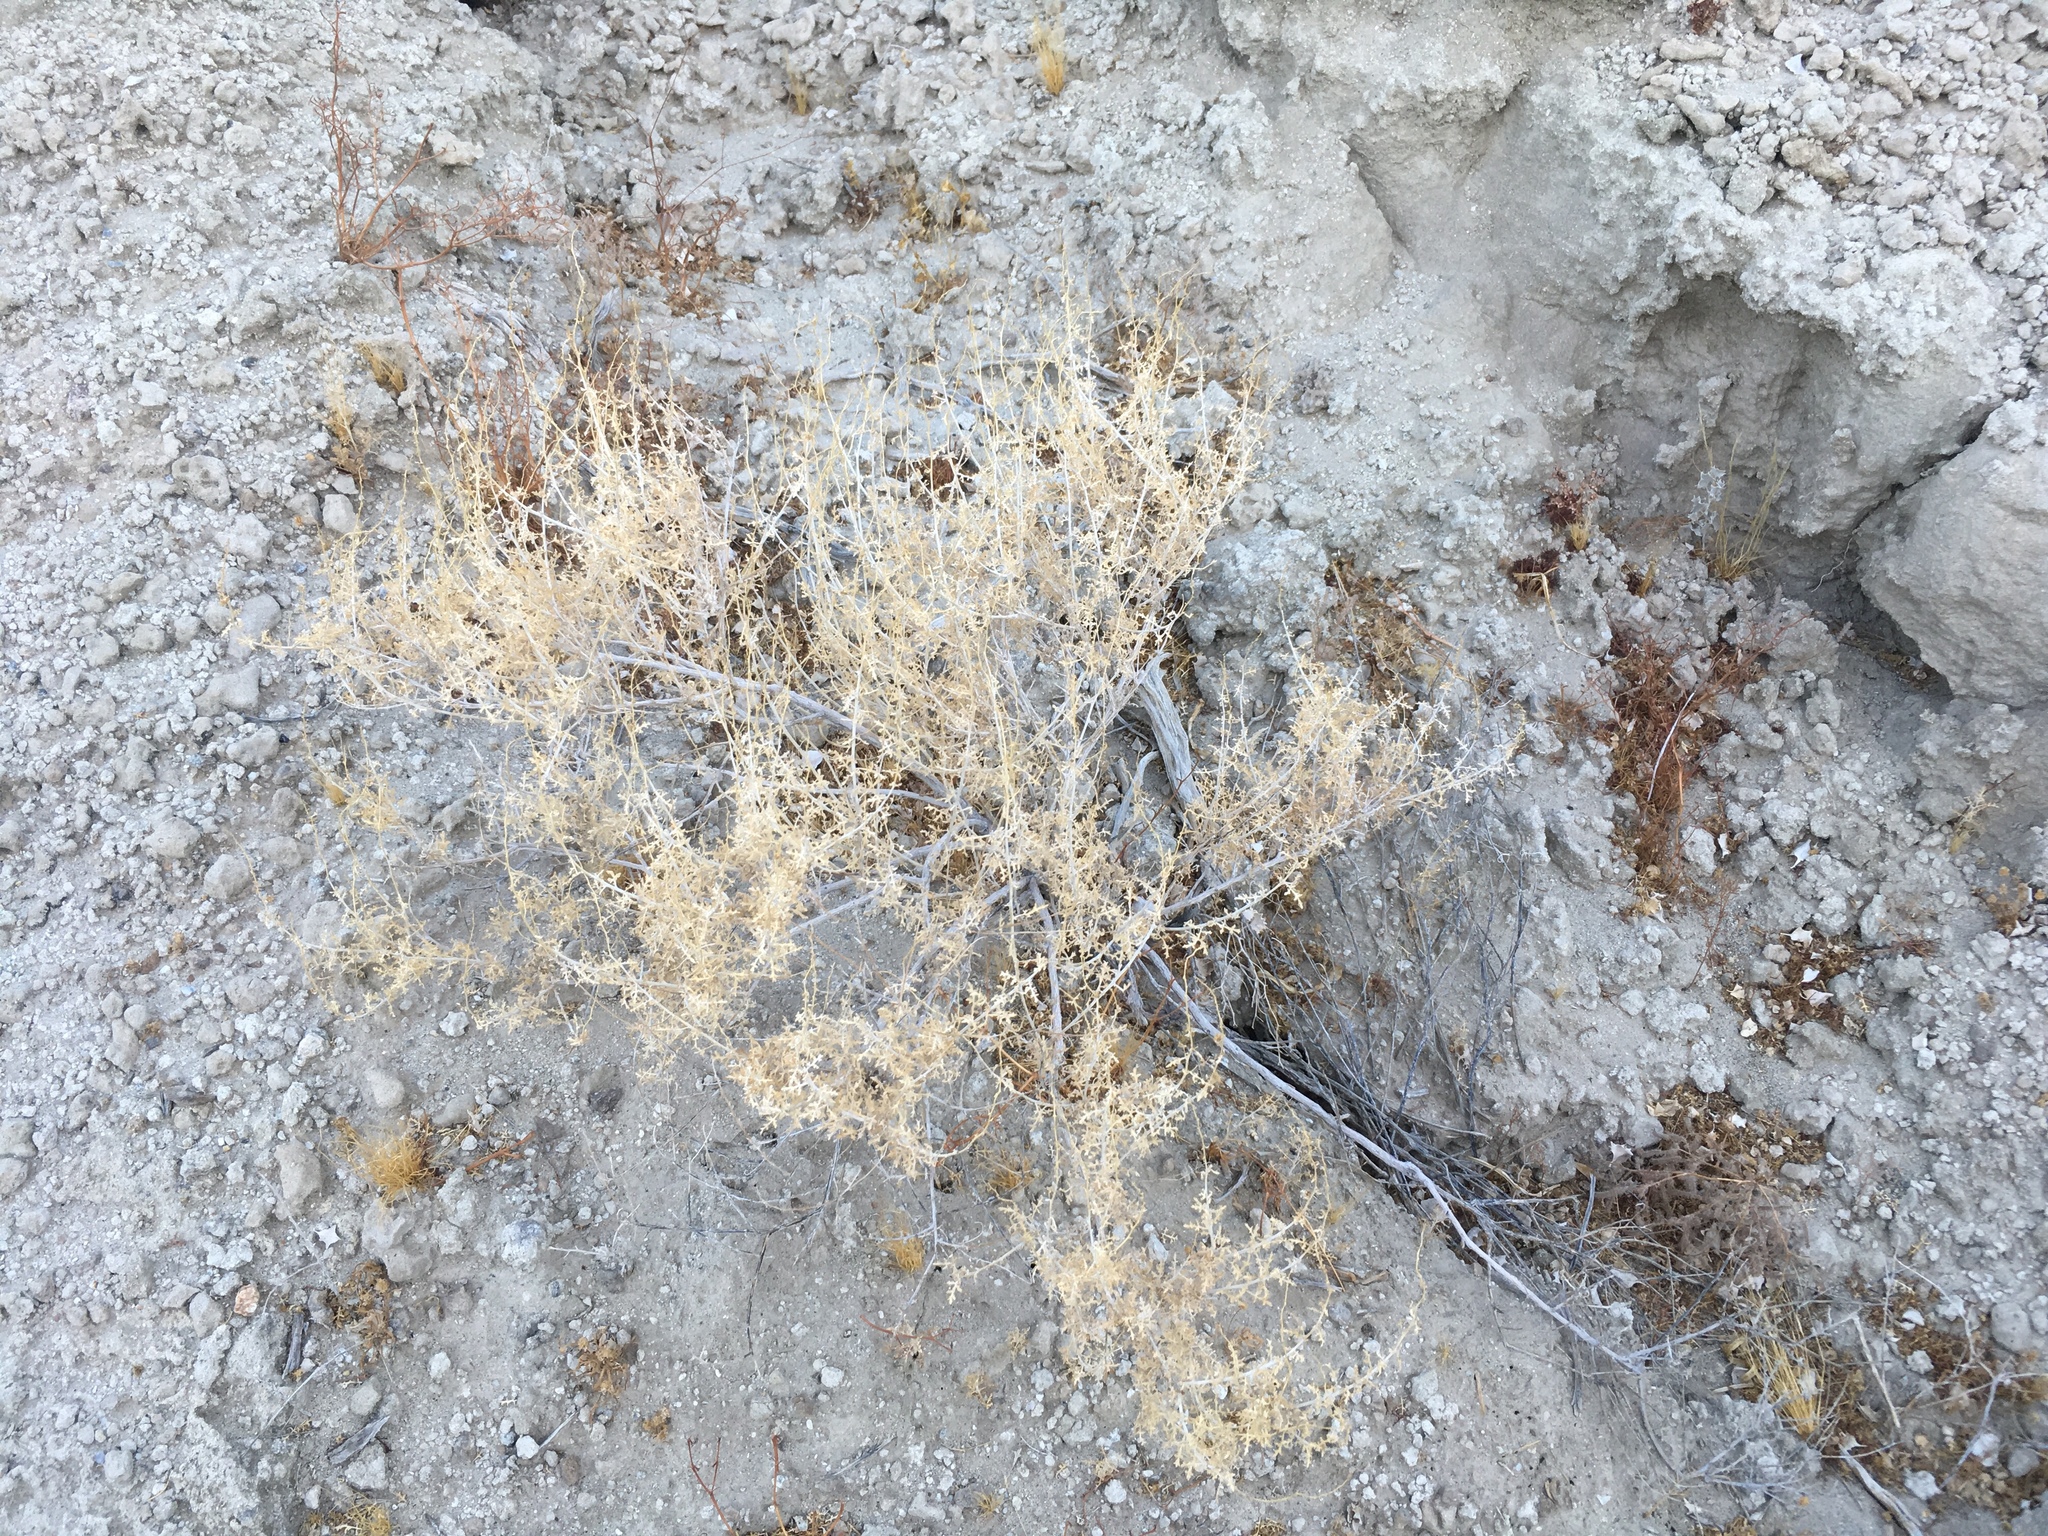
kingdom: Plantae
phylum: Tracheophyta
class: Magnoliopsida
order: Asterales
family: Asteraceae
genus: Ambrosia
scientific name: Ambrosia dumosa
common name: Bur-sage
